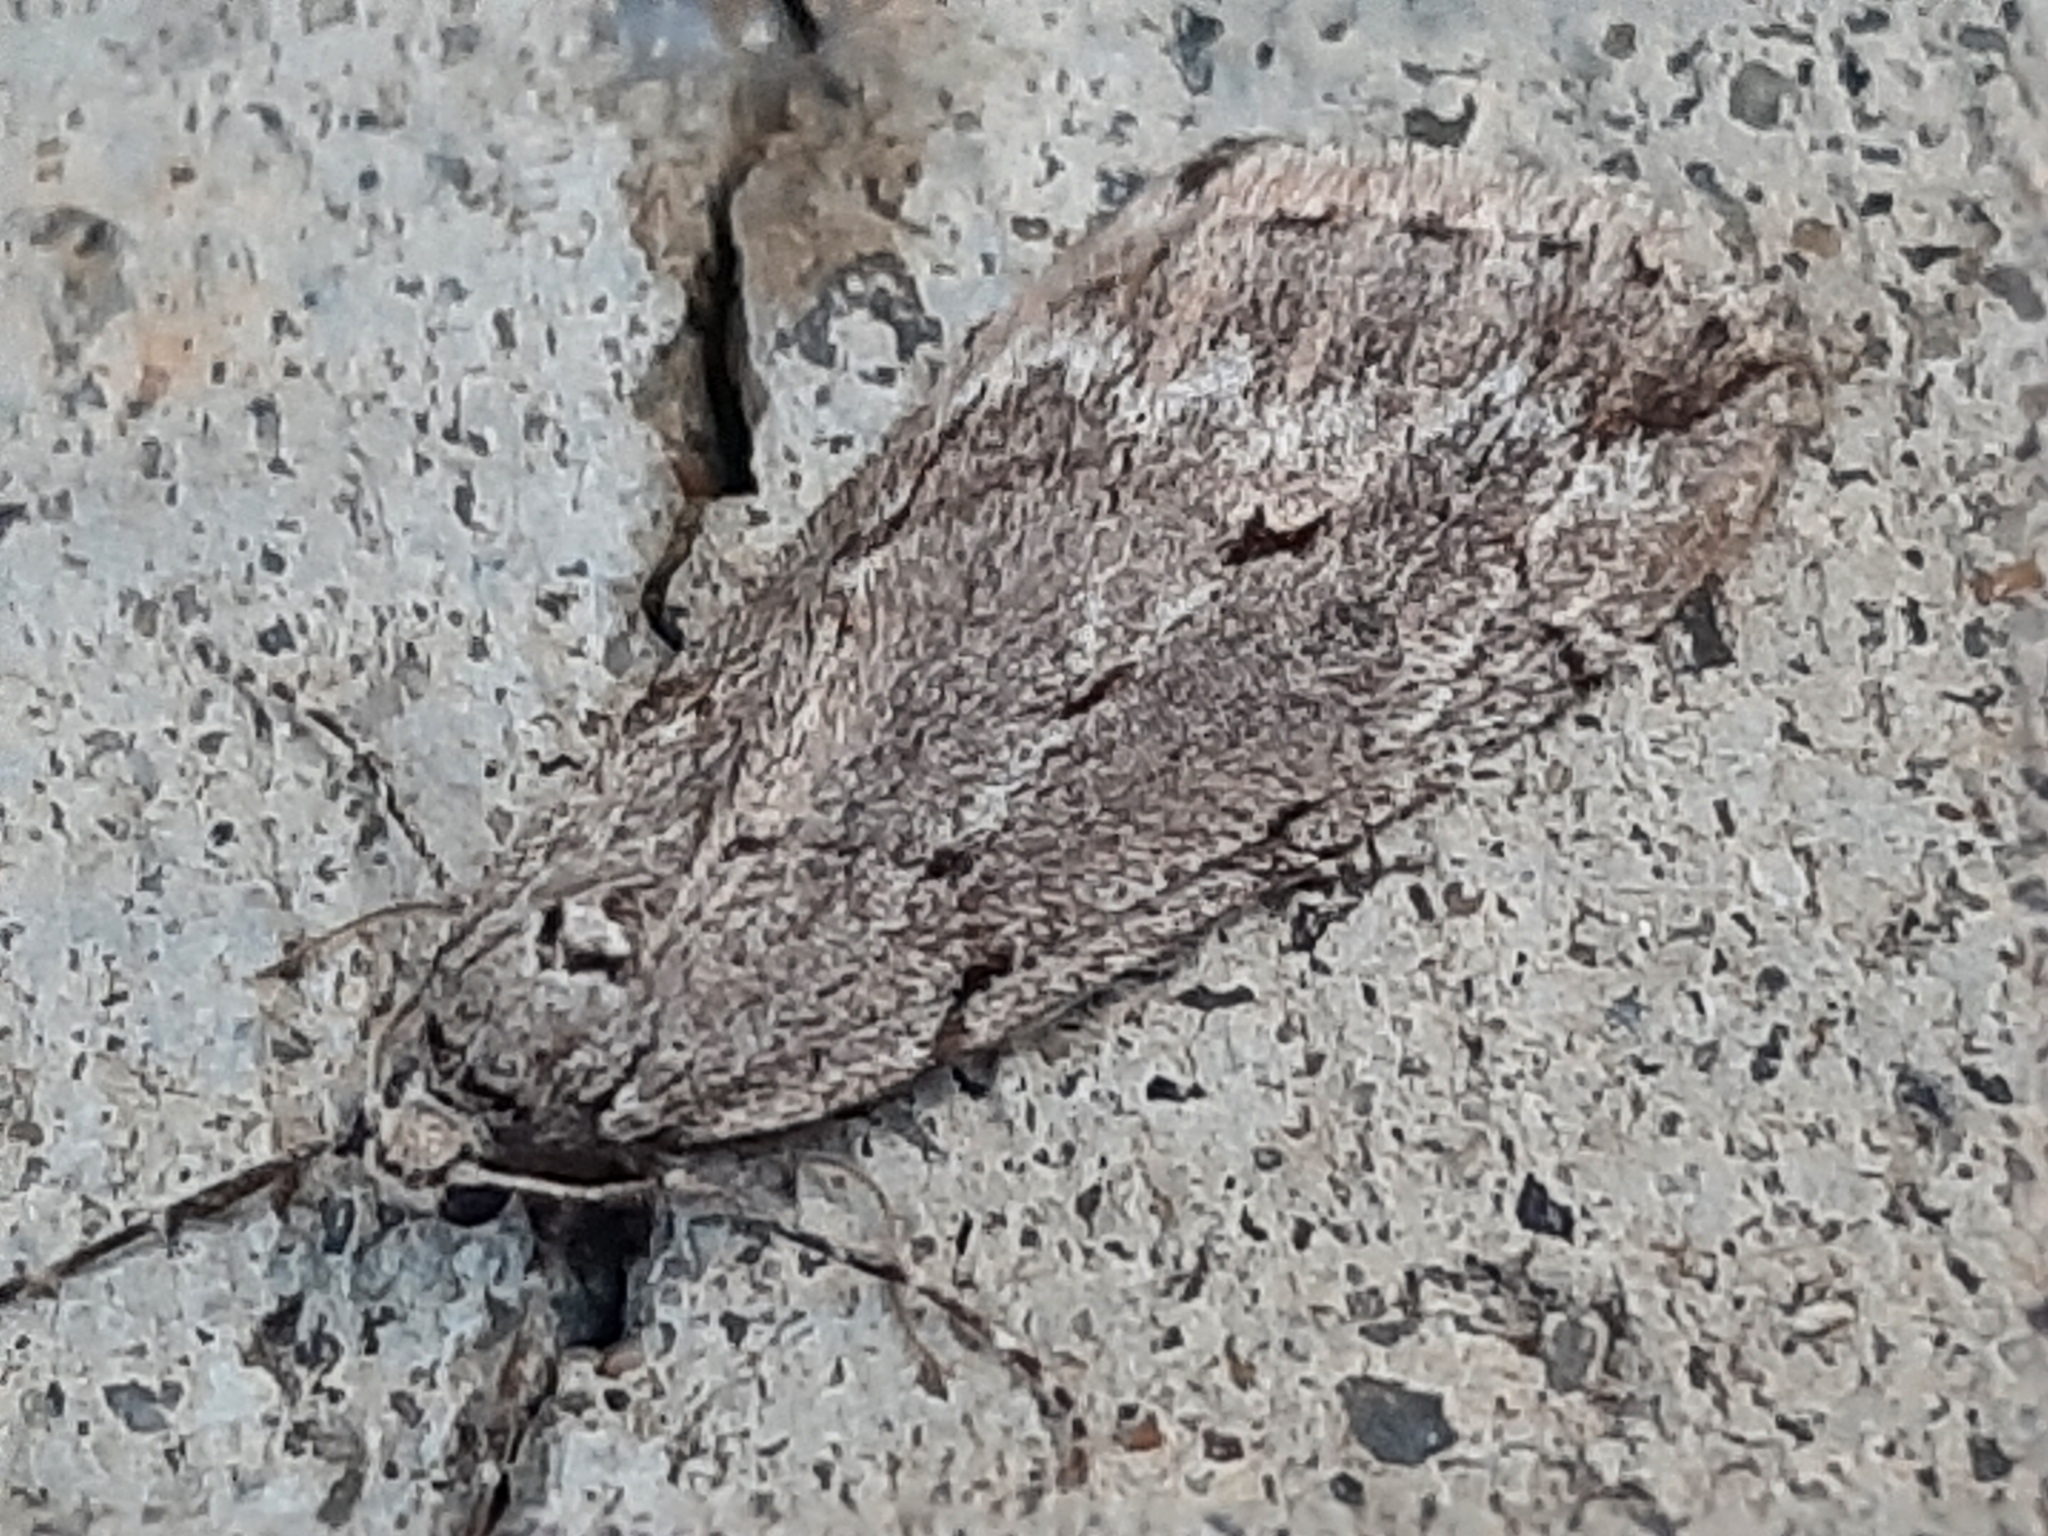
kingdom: Animalia
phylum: Arthropoda
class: Insecta
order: Lepidoptera
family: Geometridae
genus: Paleacrita
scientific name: Paleacrita vernata
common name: Spring cankerworm
